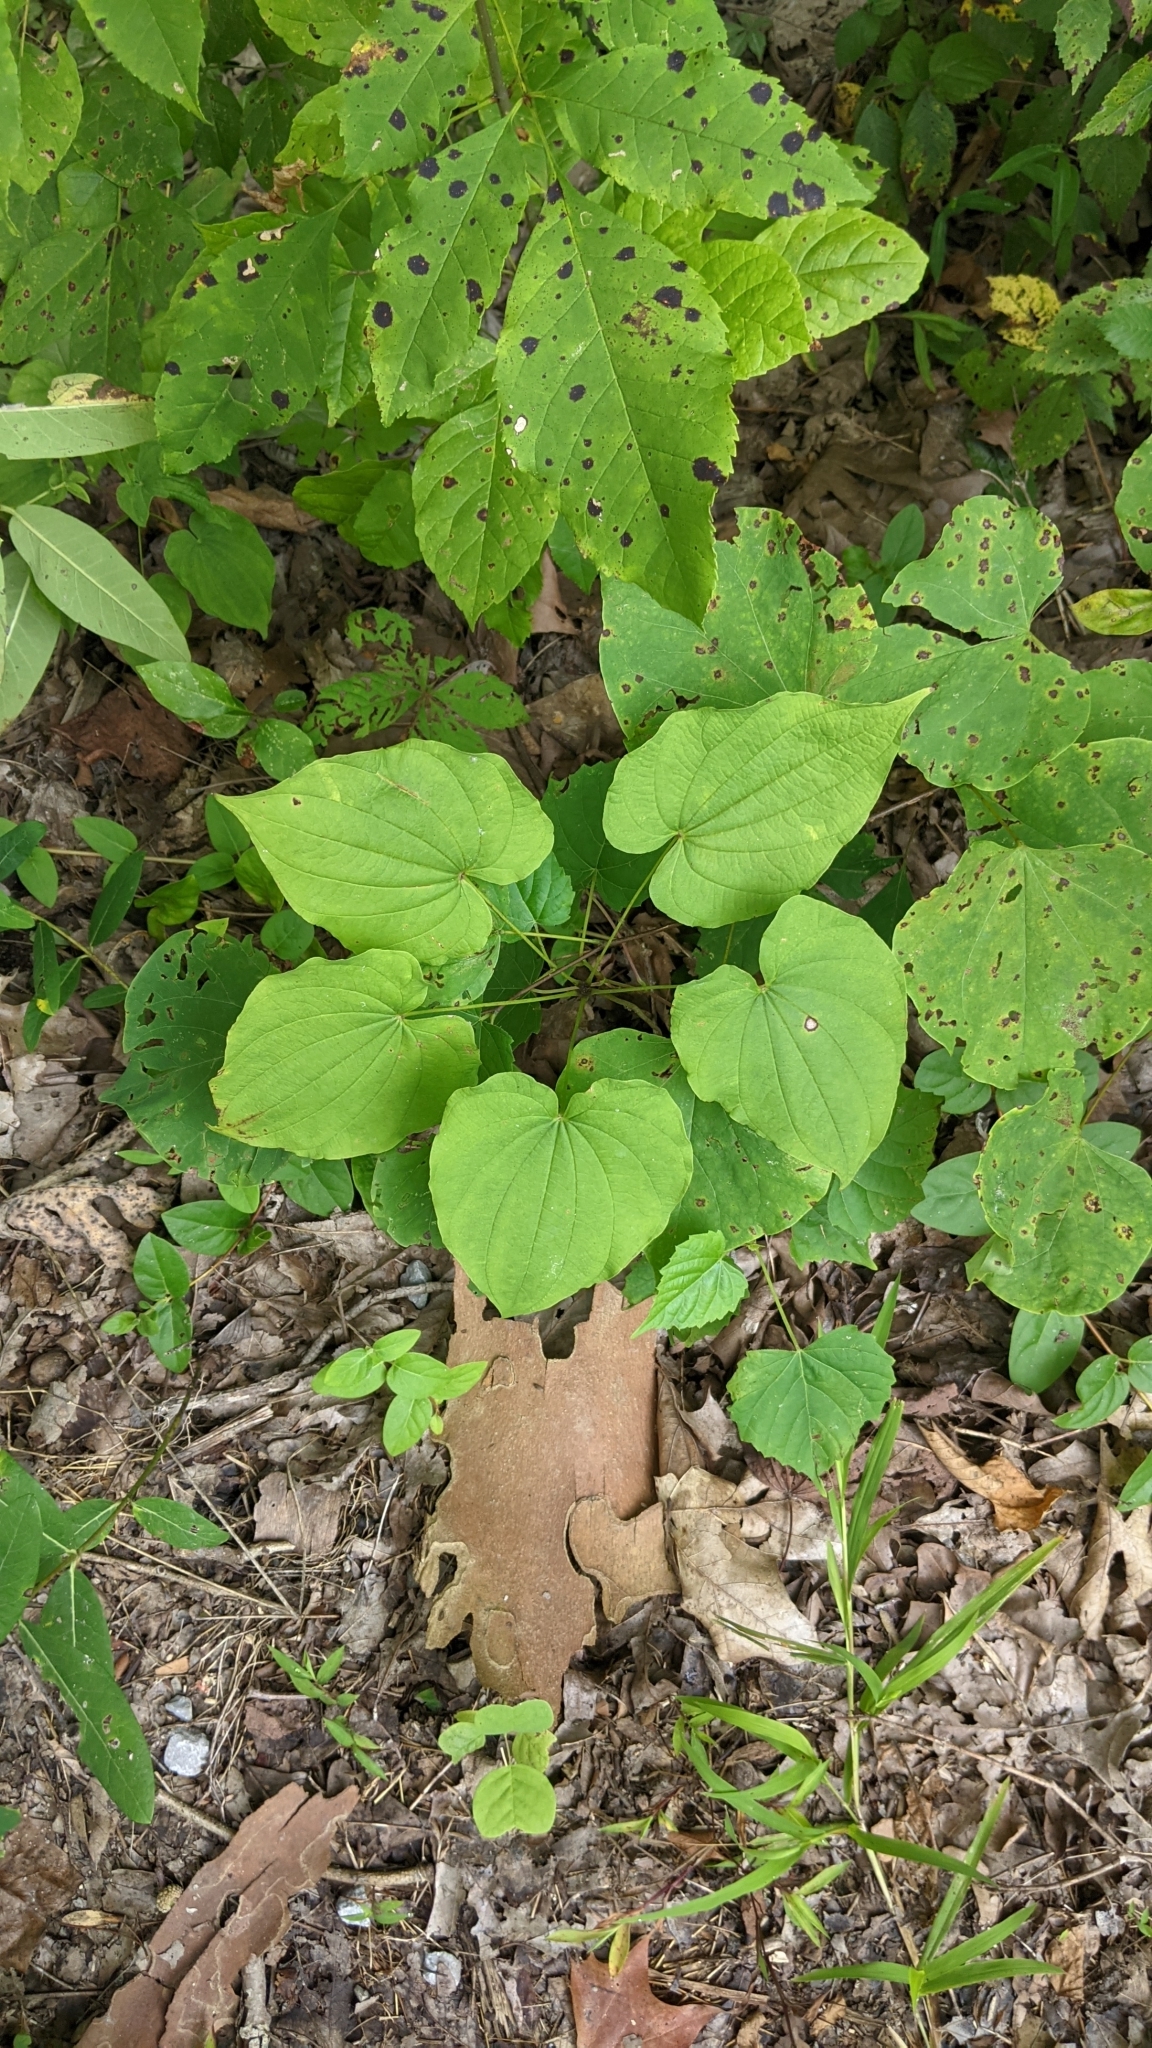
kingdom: Plantae
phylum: Tracheophyta
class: Liliopsida
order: Dioscoreales
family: Dioscoreaceae
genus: Dioscorea
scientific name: Dioscorea villosa
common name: Wild yam
